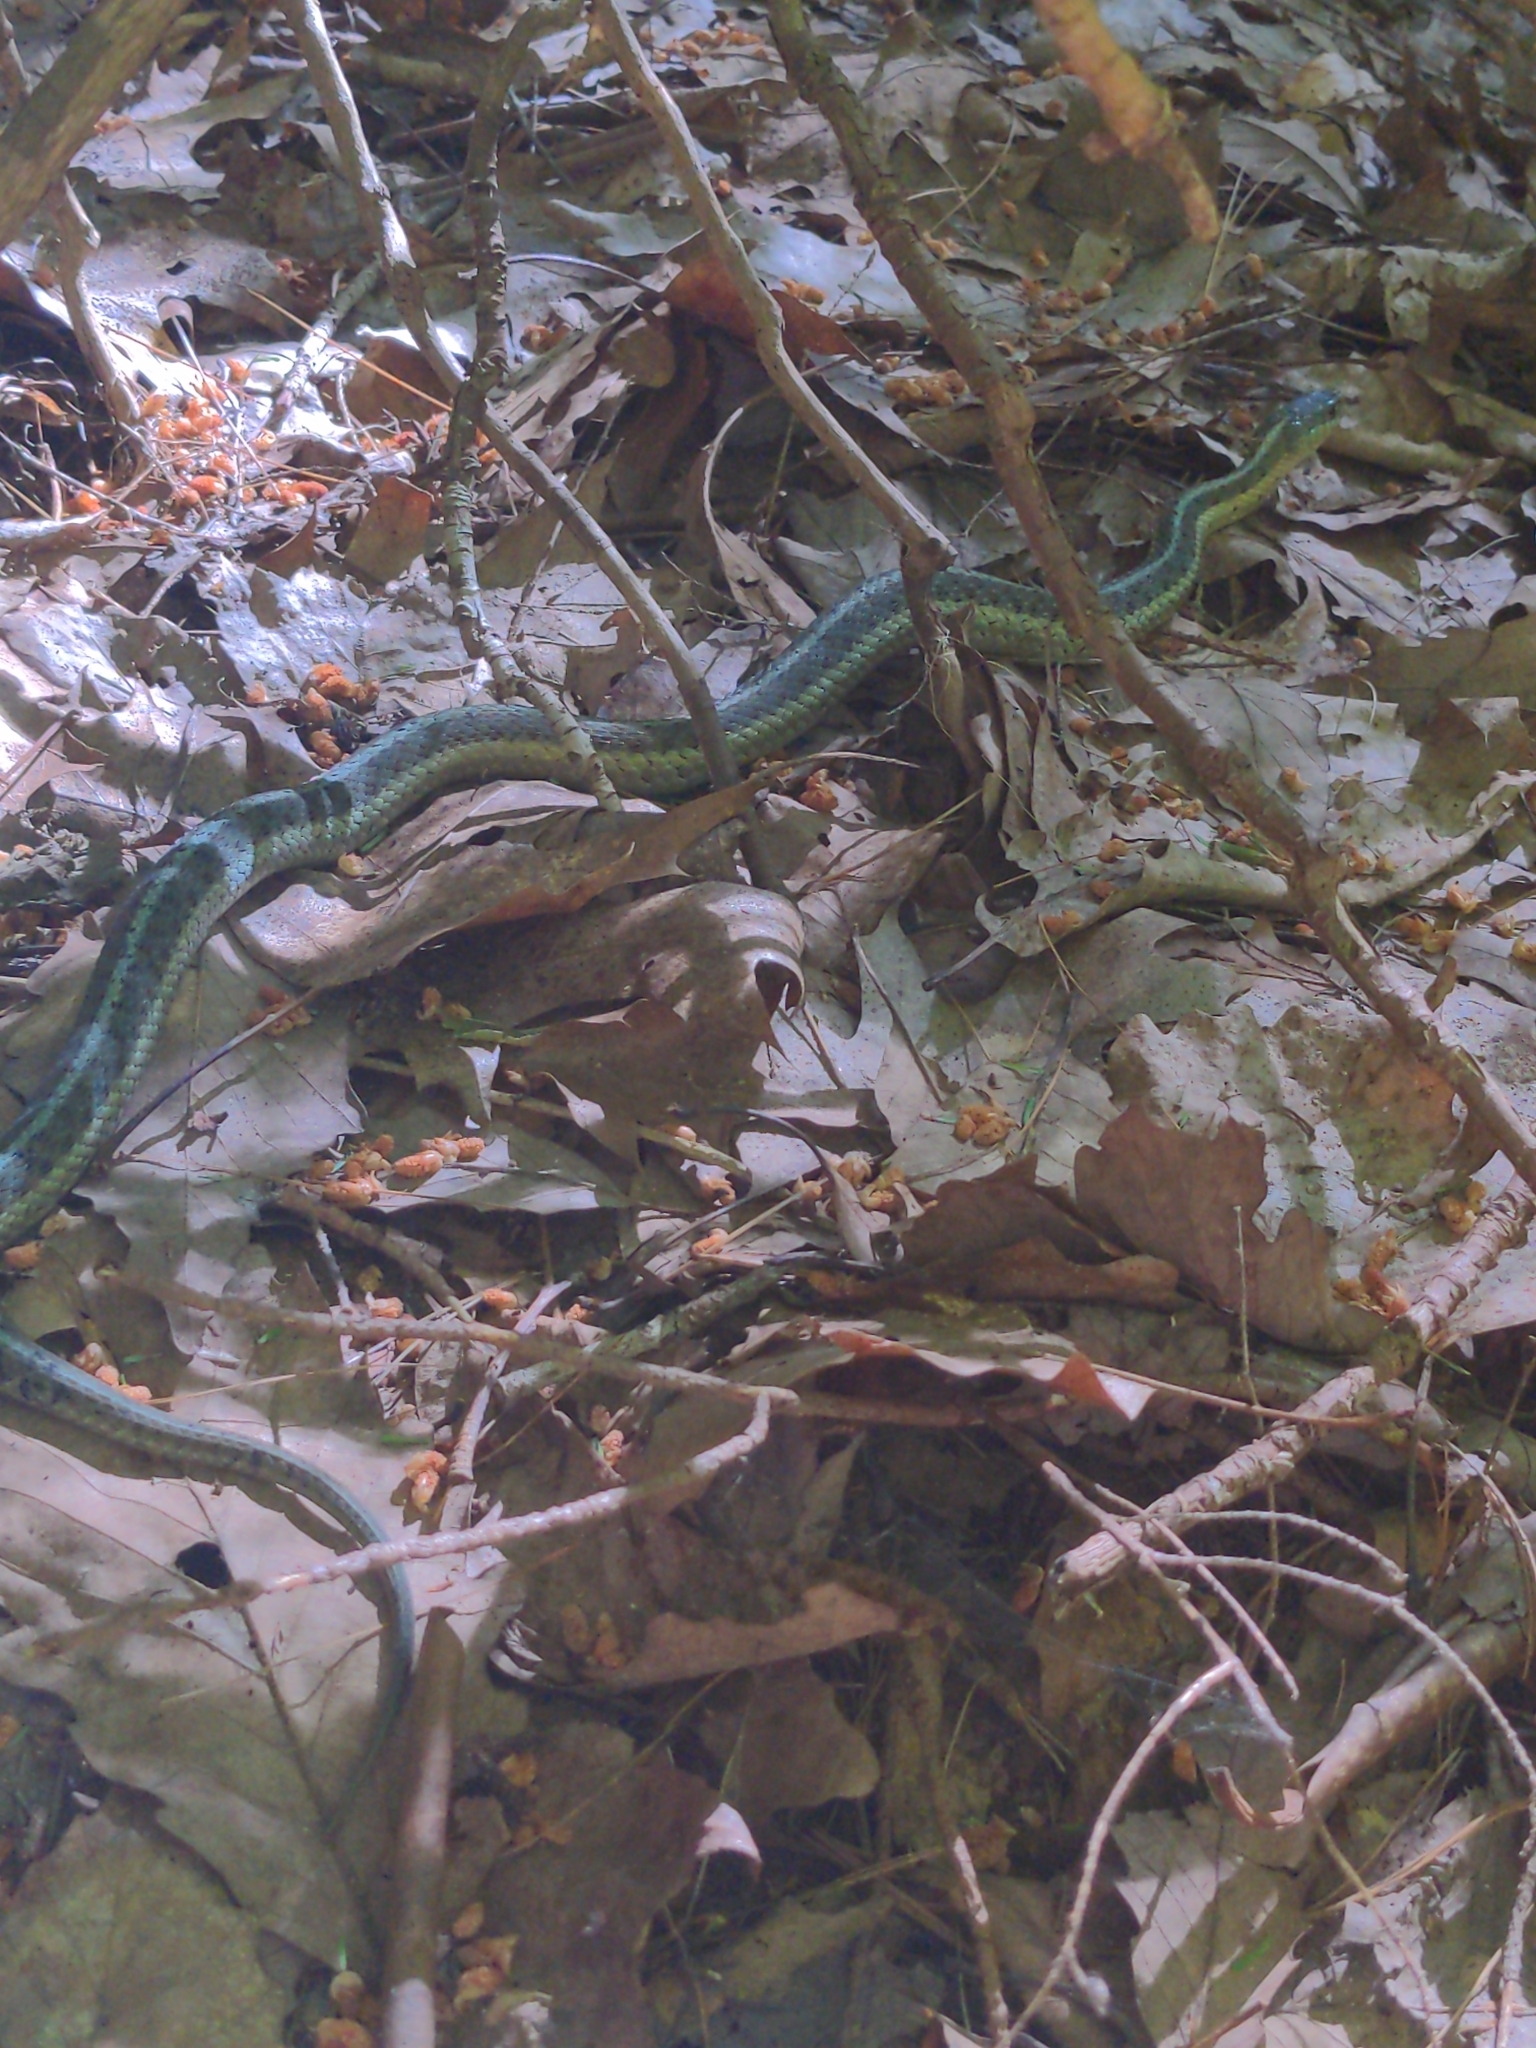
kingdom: Animalia
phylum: Chordata
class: Squamata
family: Colubridae
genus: Thamnophis
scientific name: Thamnophis sirtalis
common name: Common garter snake
